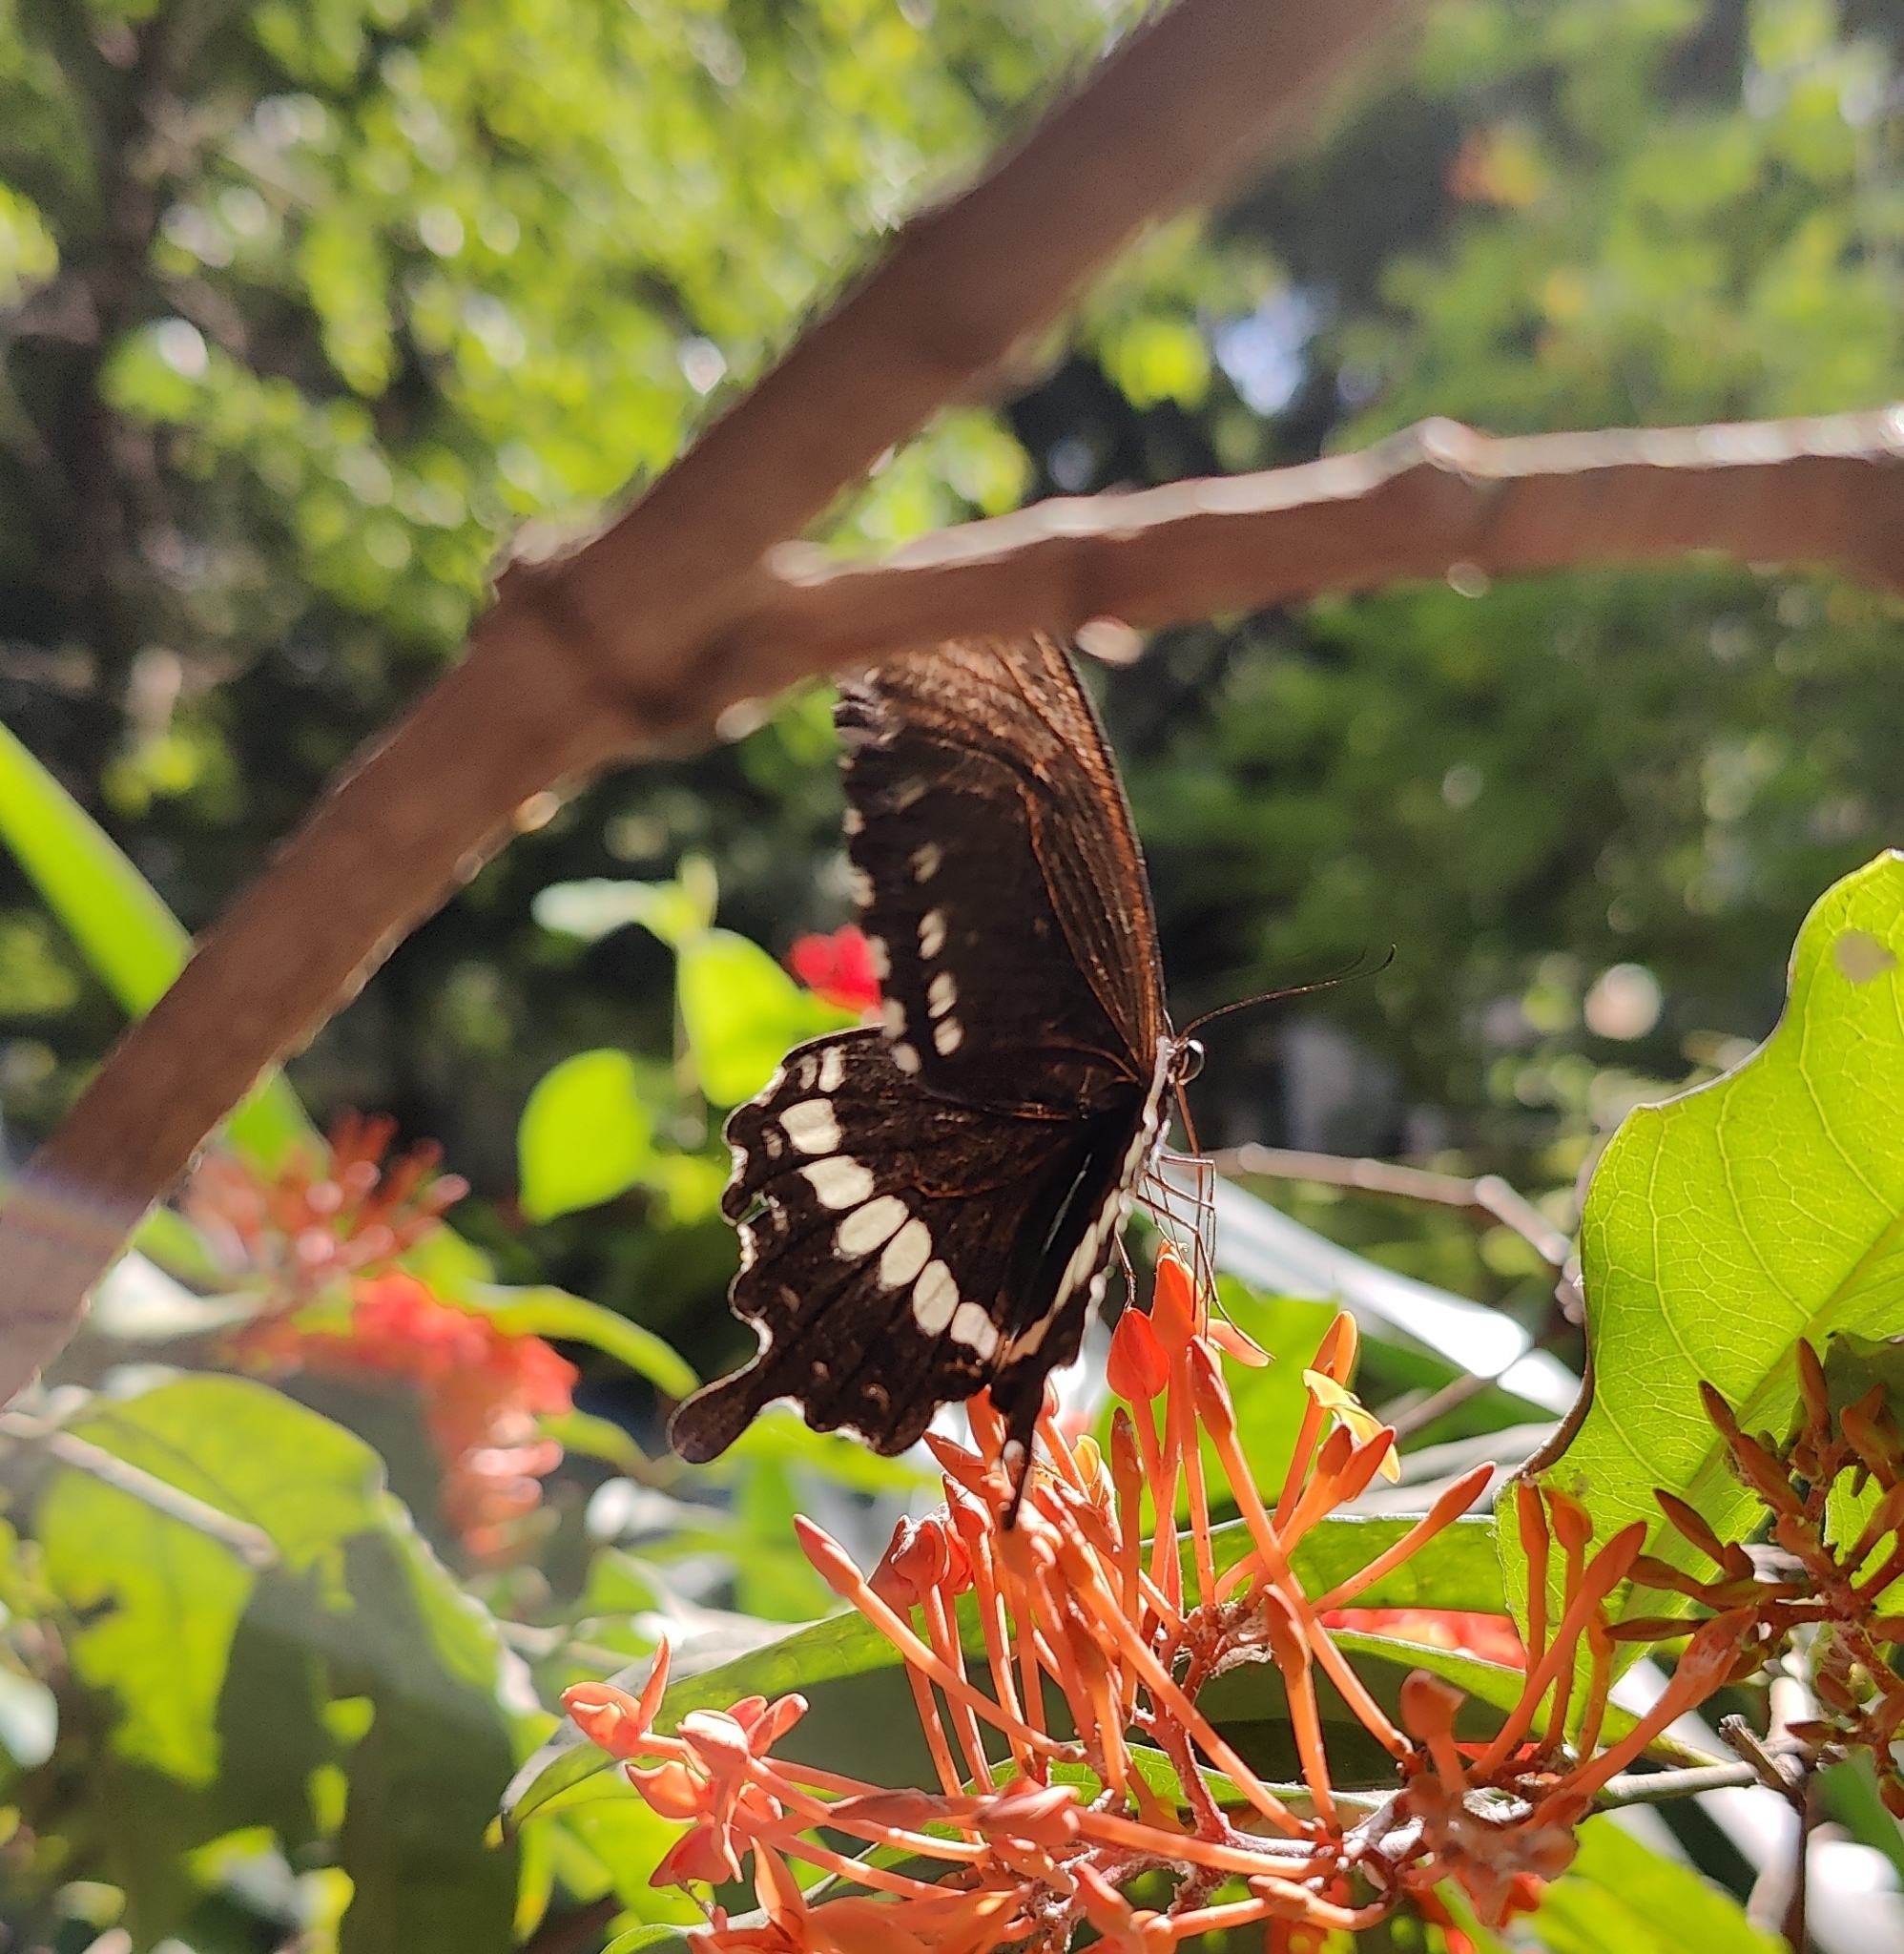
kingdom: Animalia
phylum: Arthropoda
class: Insecta
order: Lepidoptera
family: Papilionidae
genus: Papilio
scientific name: Papilio polytes
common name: Common mormon
